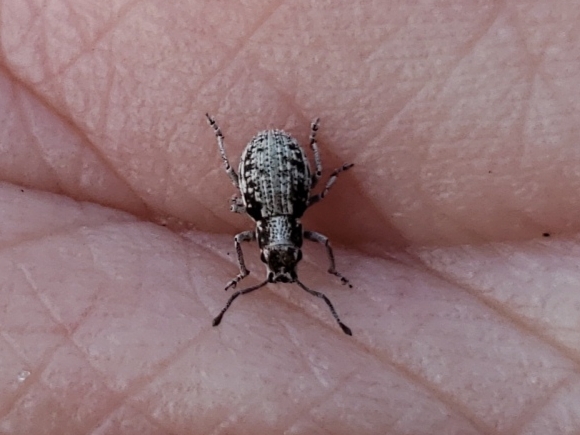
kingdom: Animalia
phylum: Arthropoda
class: Insecta
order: Coleoptera
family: Curculionidae
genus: Neoptochus
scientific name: Neoptochus adspersus
